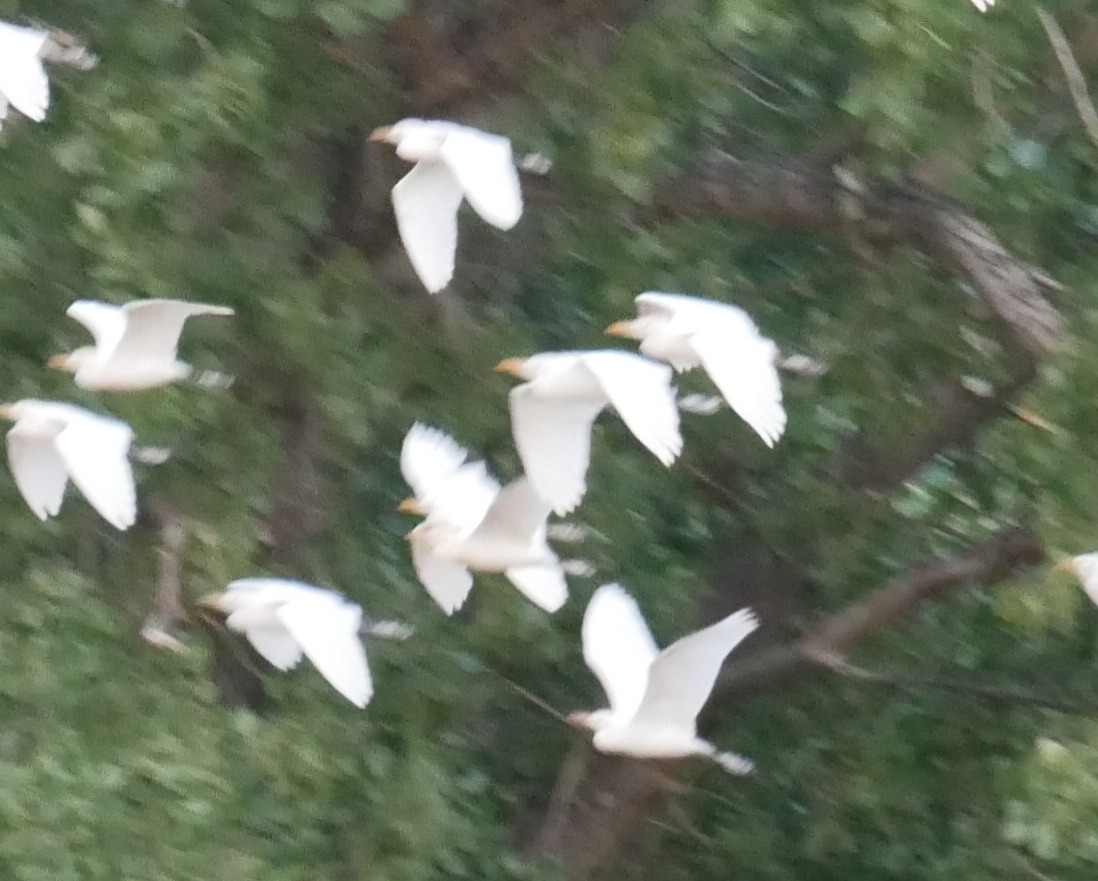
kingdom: Animalia
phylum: Chordata
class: Aves
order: Pelecaniformes
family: Ardeidae
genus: Bubulcus
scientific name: Bubulcus ibis
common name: Cattle egret
